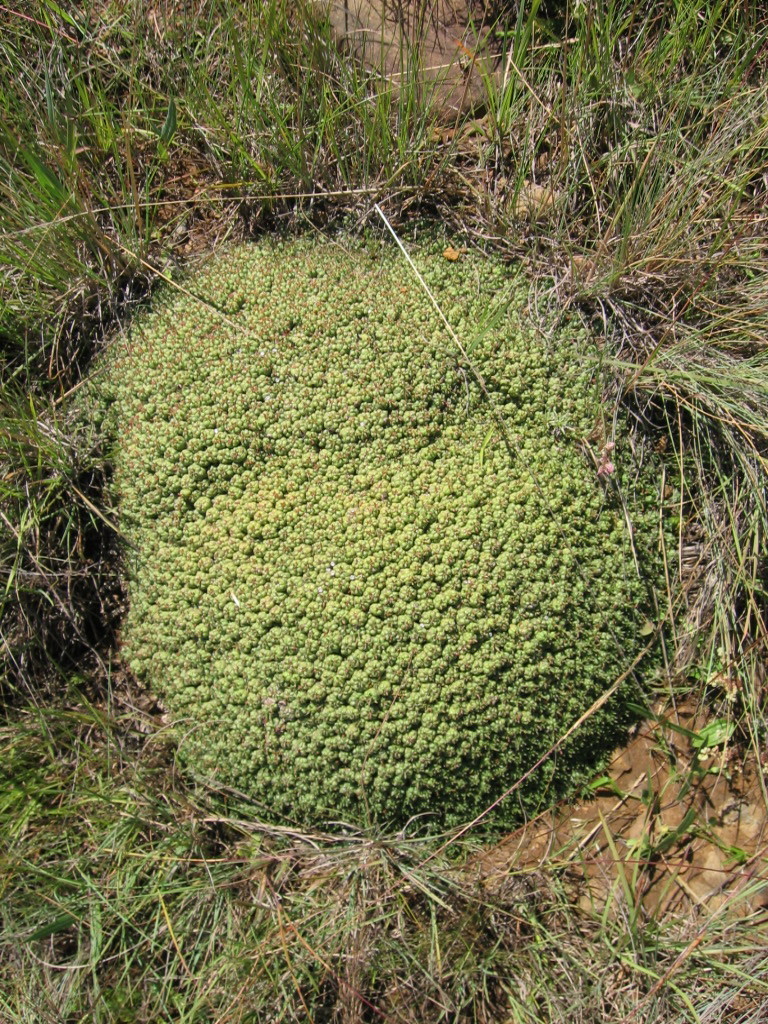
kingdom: Plantae
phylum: Tracheophyta
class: Magnoliopsida
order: Malpighiales
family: Euphorbiaceae
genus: Euphorbia
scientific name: Euphorbia clavarioides
